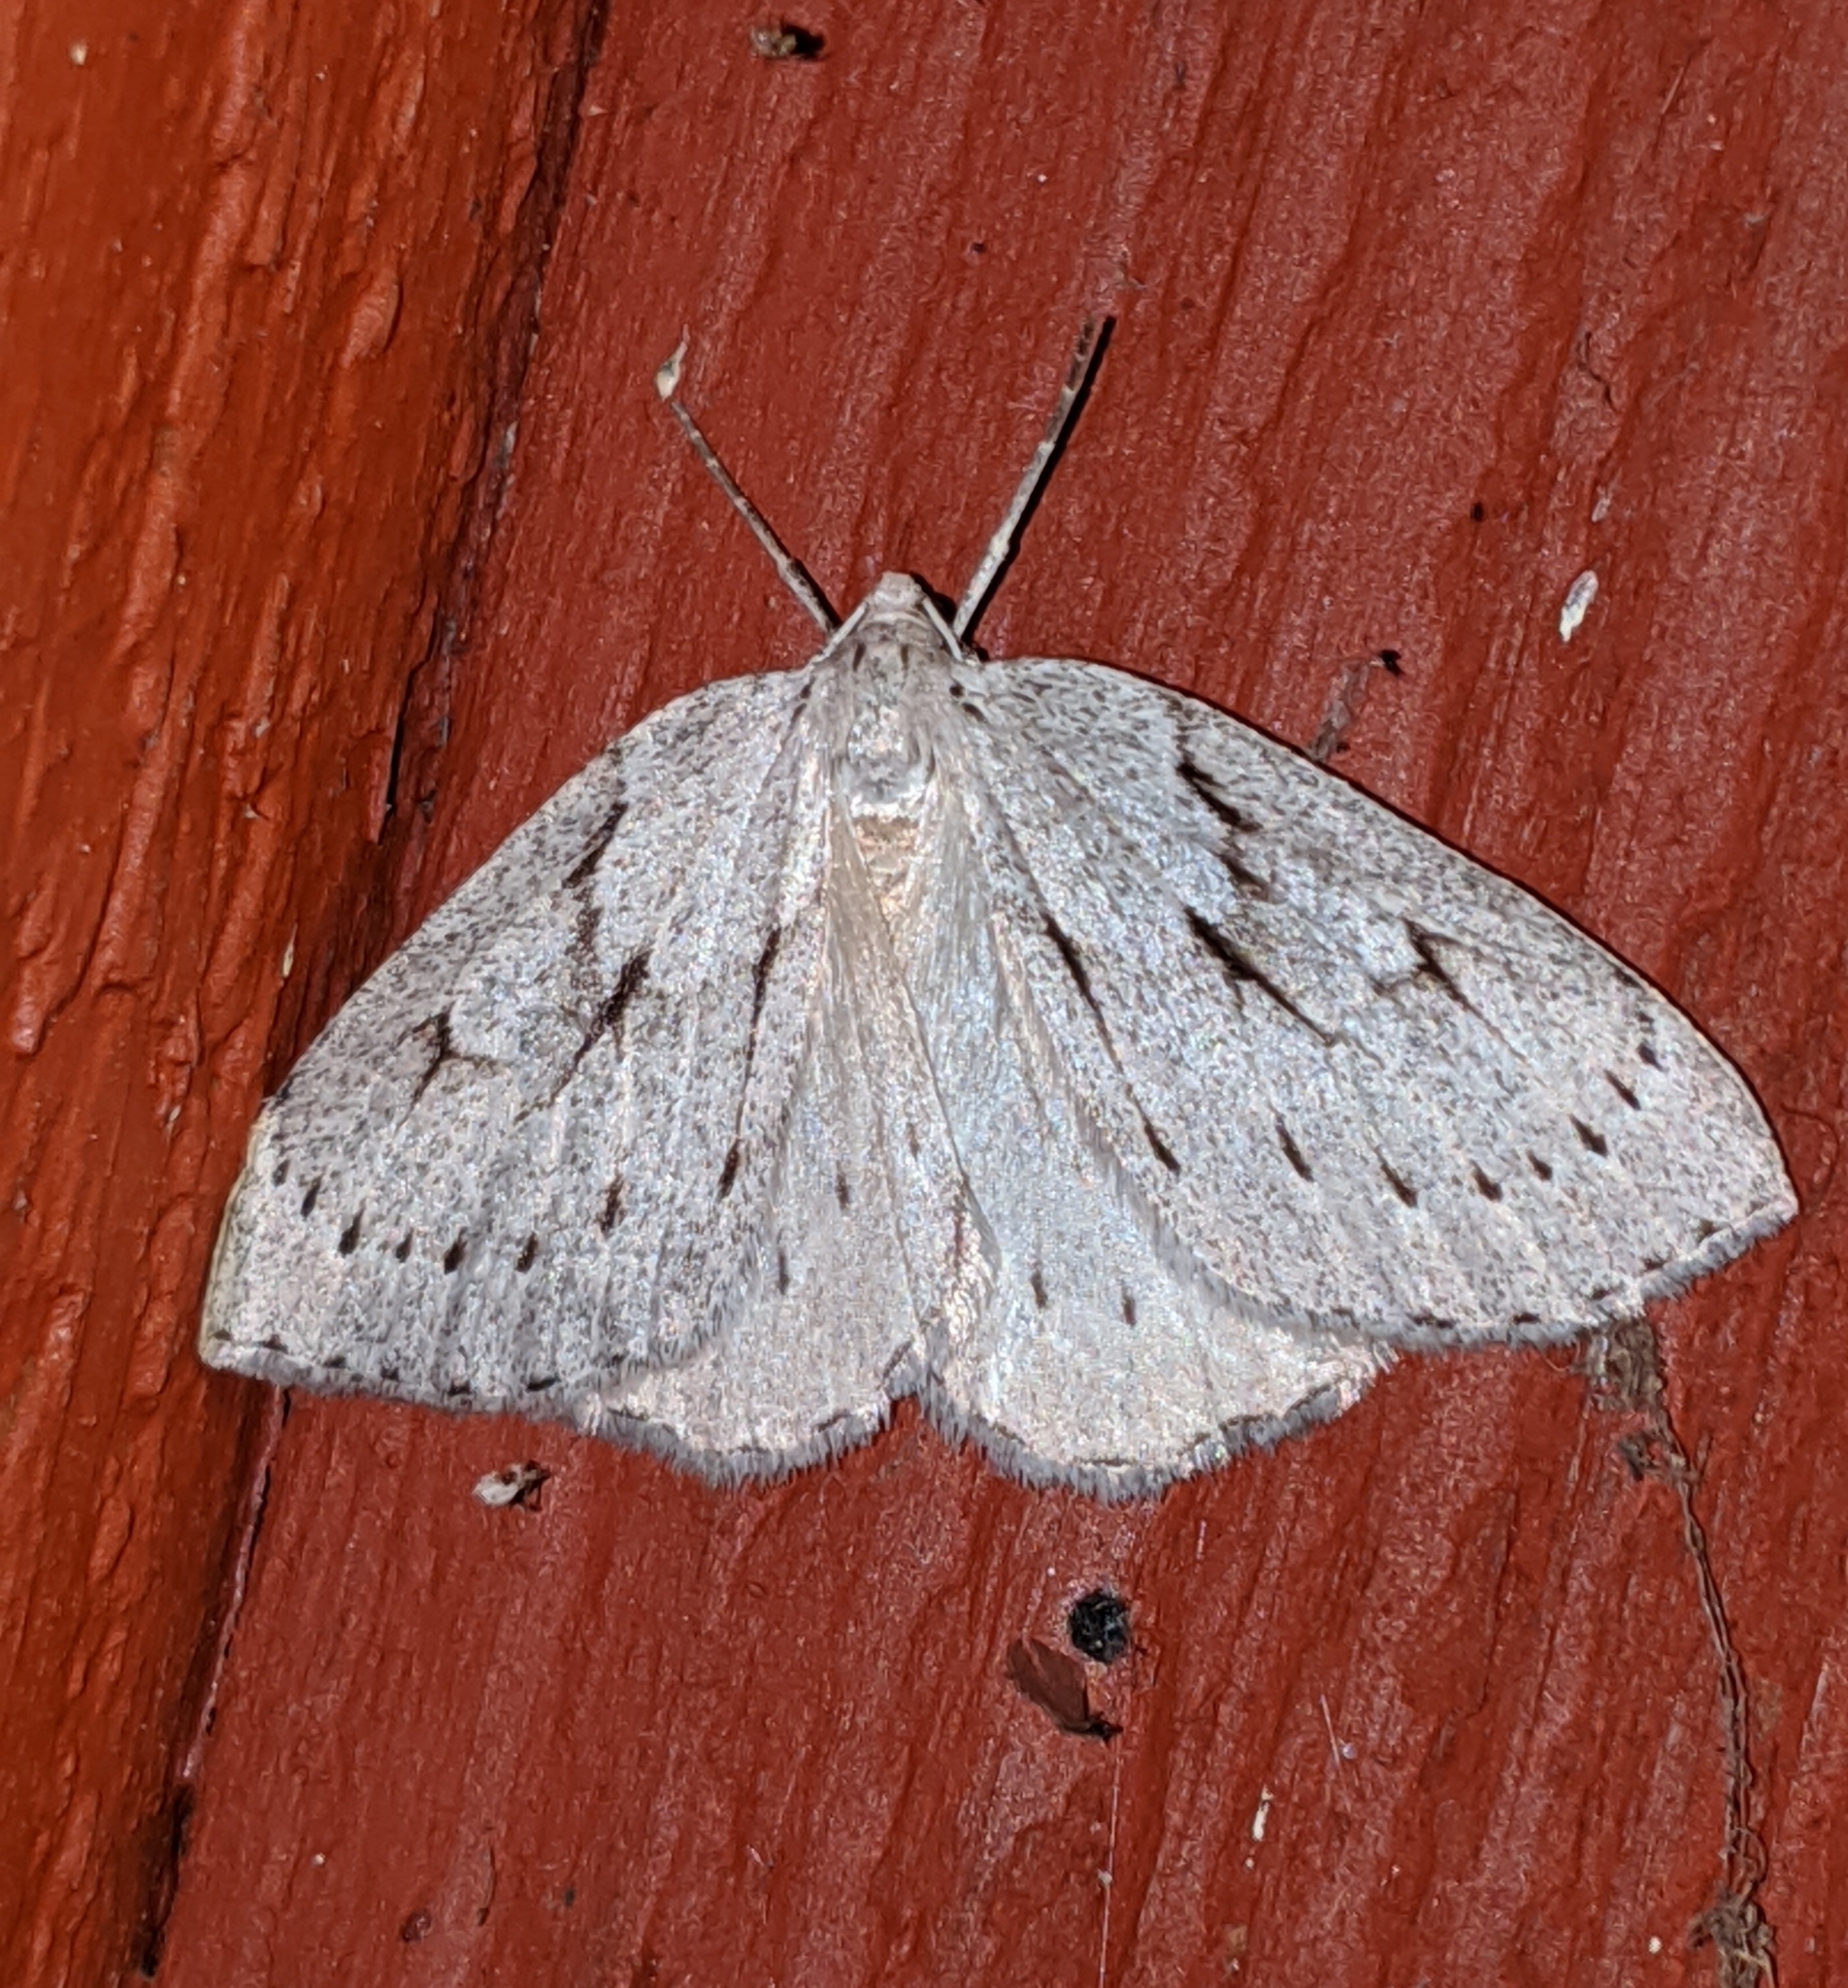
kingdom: Animalia
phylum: Arthropoda
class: Insecta
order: Lepidoptera
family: Geometridae
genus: Philedia
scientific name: Philedia punctomacularia
